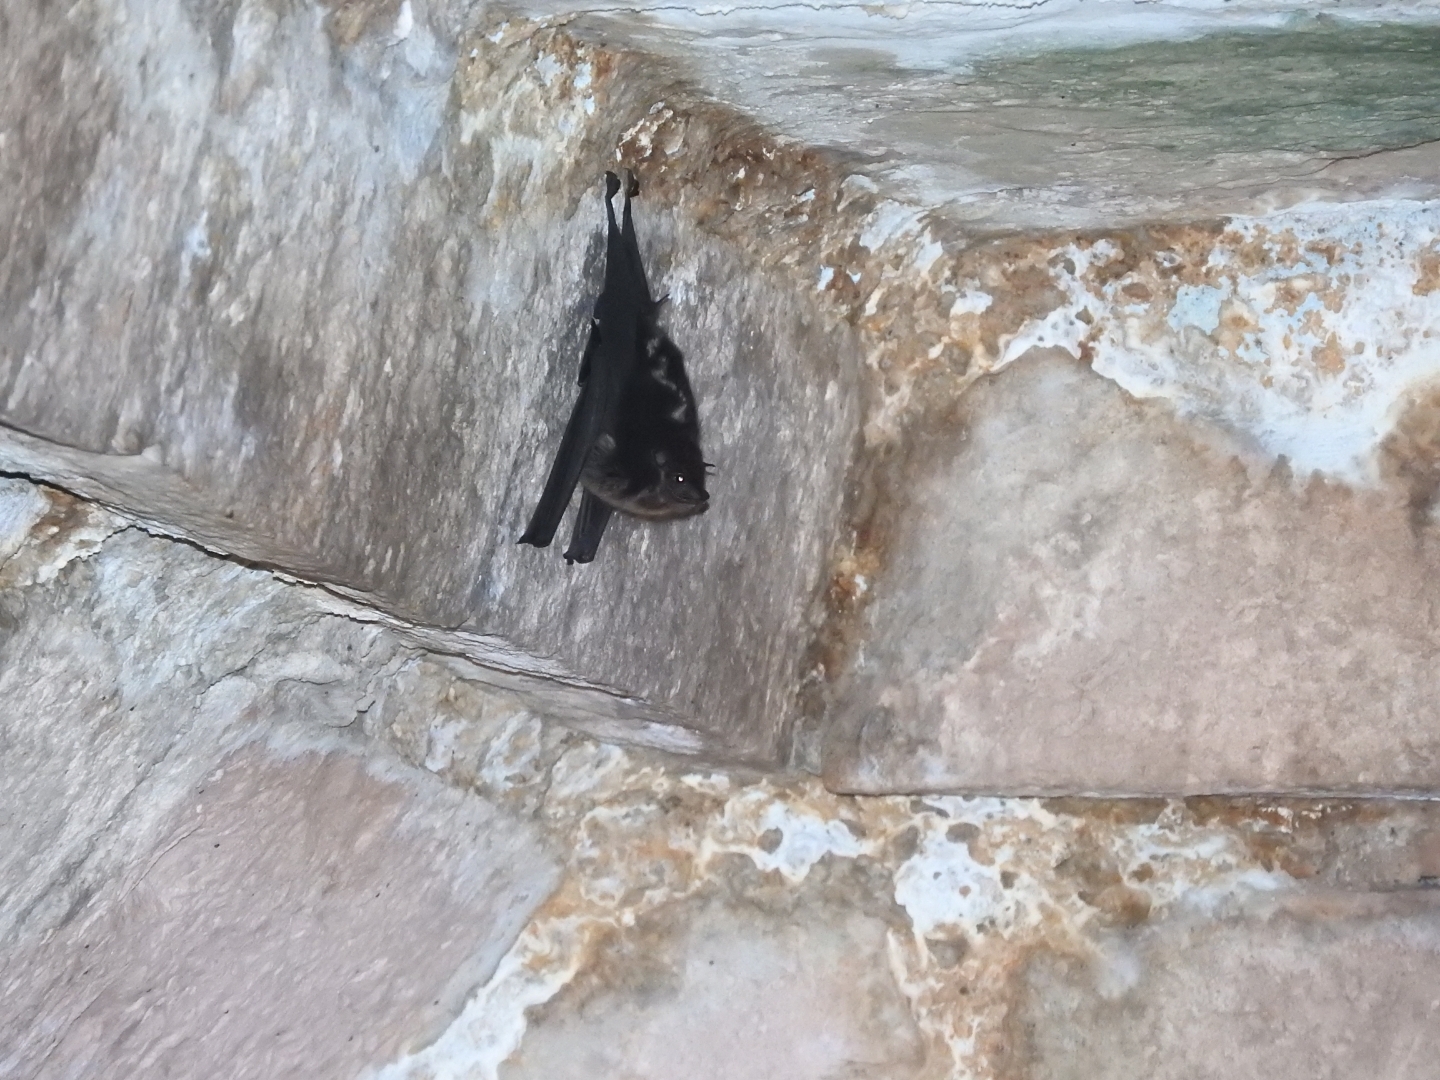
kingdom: Animalia
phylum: Chordata
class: Mammalia
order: Chiroptera
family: Emballonuridae
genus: Saccopteryx
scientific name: Saccopteryx bilineata
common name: Greater sac-winged bat
